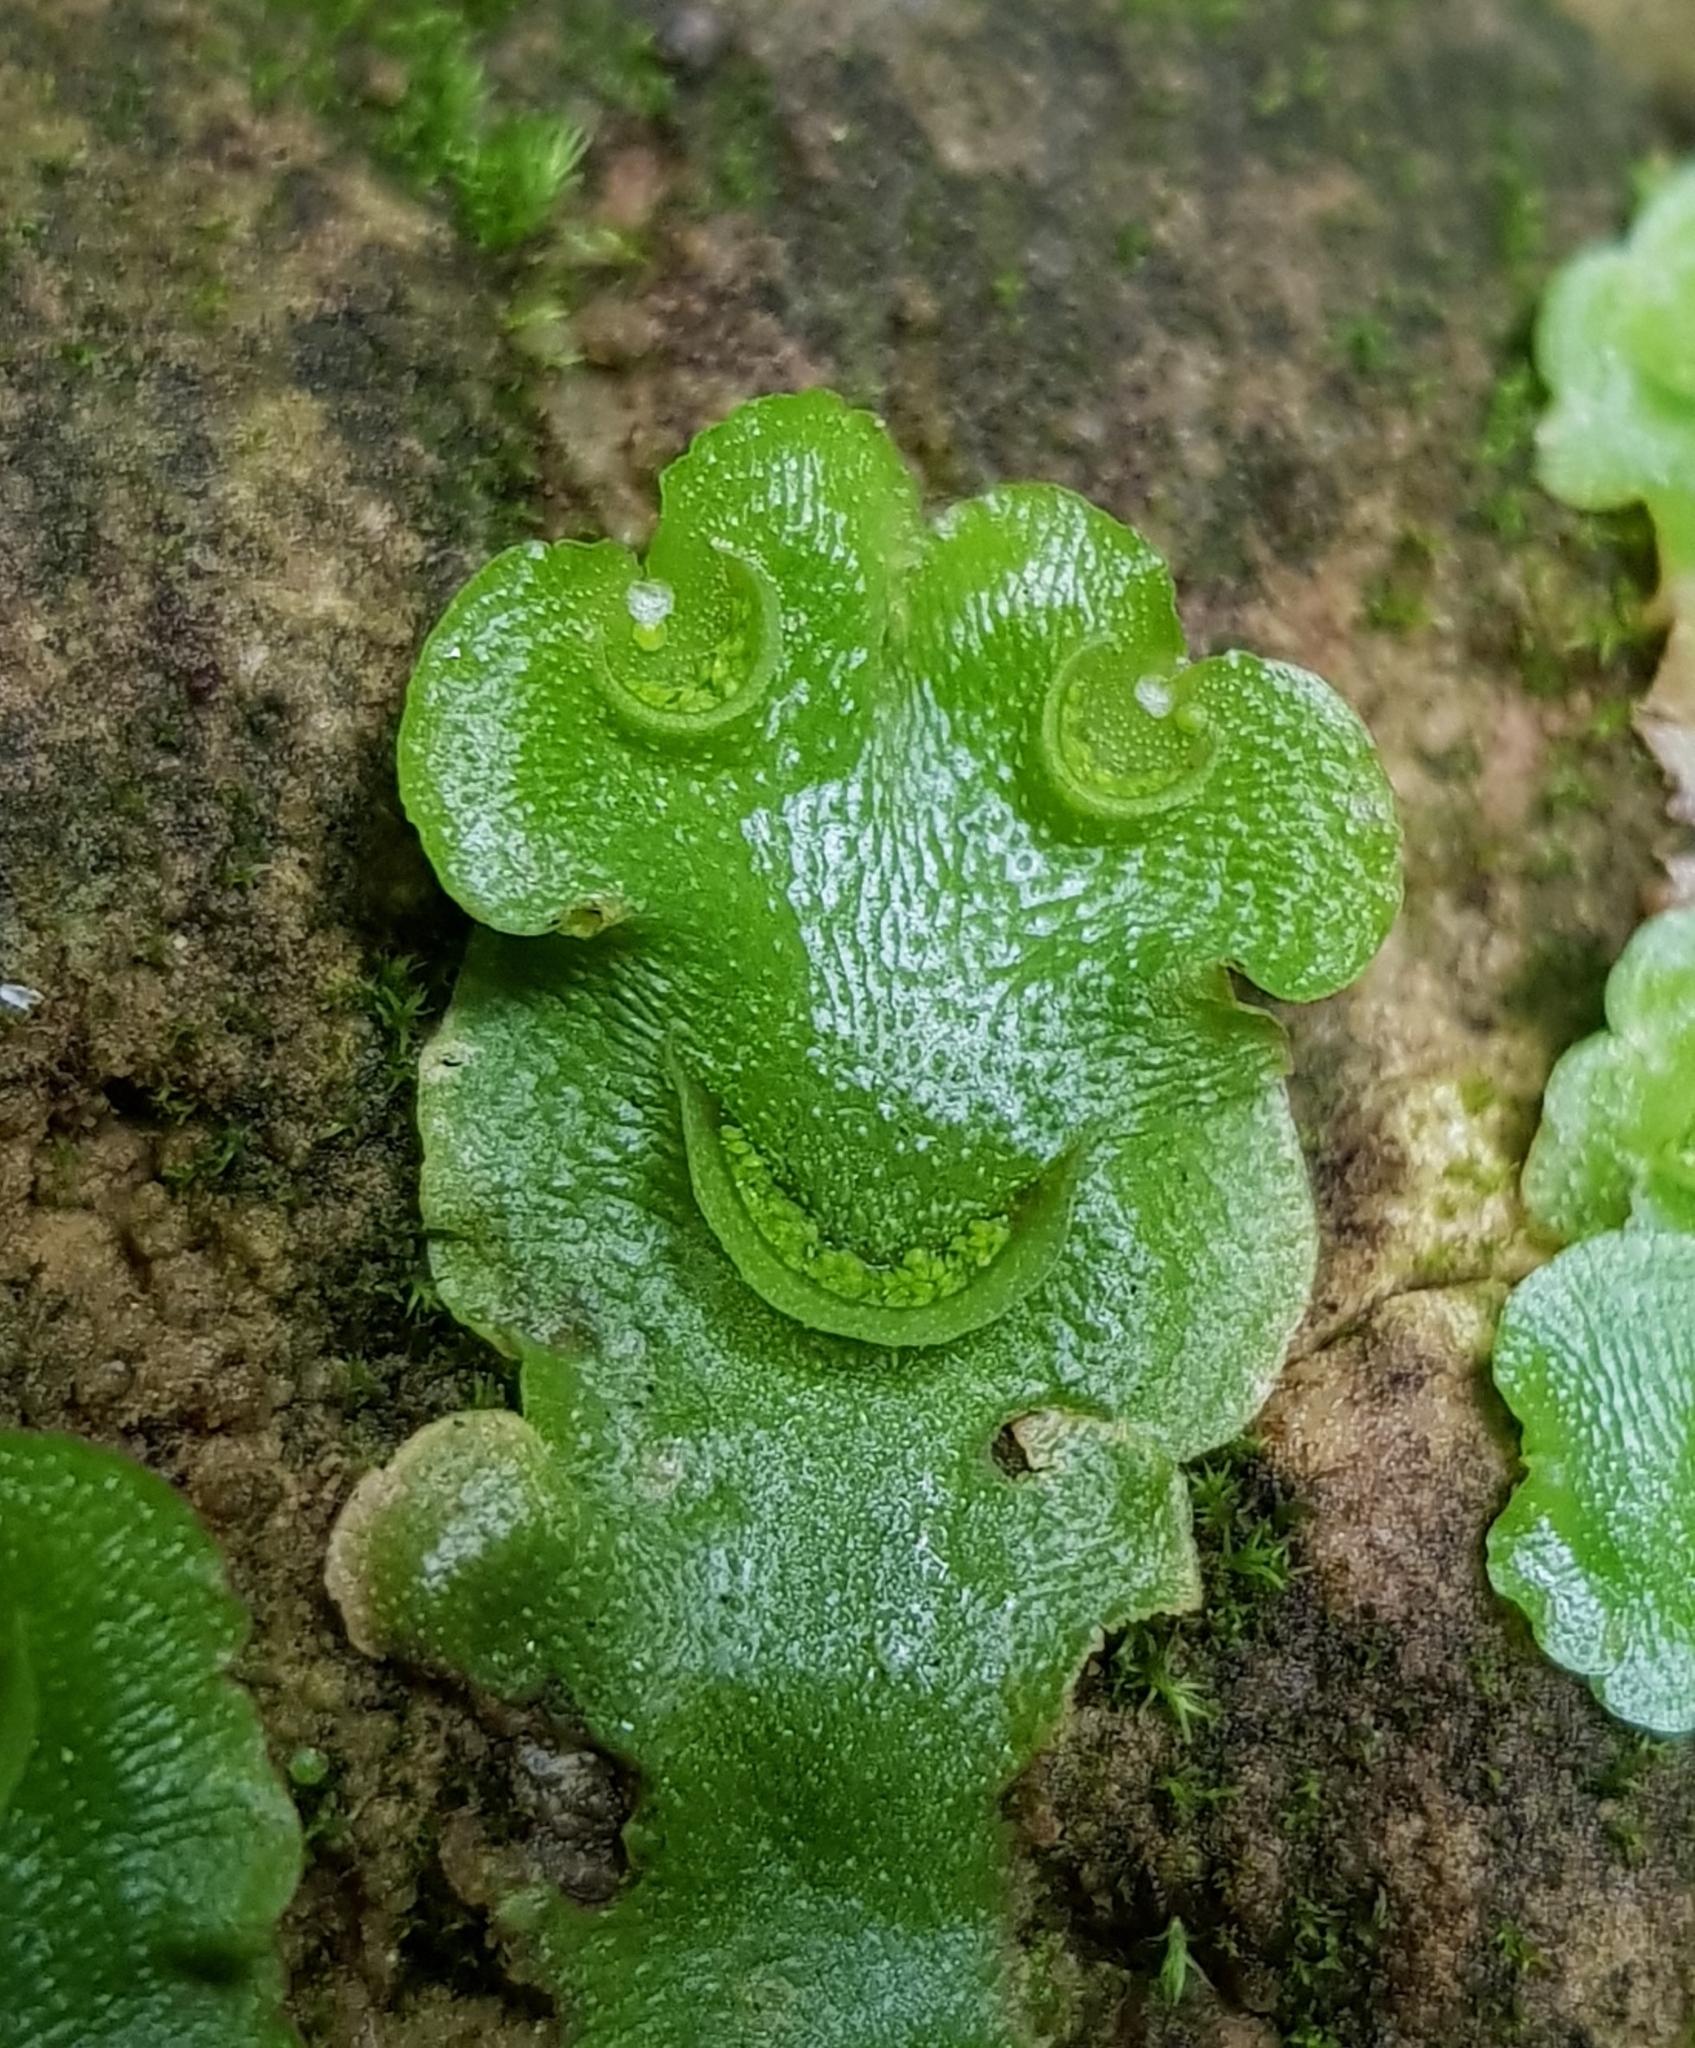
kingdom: Plantae
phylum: Marchantiophyta
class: Marchantiopsida
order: Lunulariales
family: Lunulariaceae
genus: Lunularia
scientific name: Lunularia cruciata
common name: Crescent-cup liverwort
